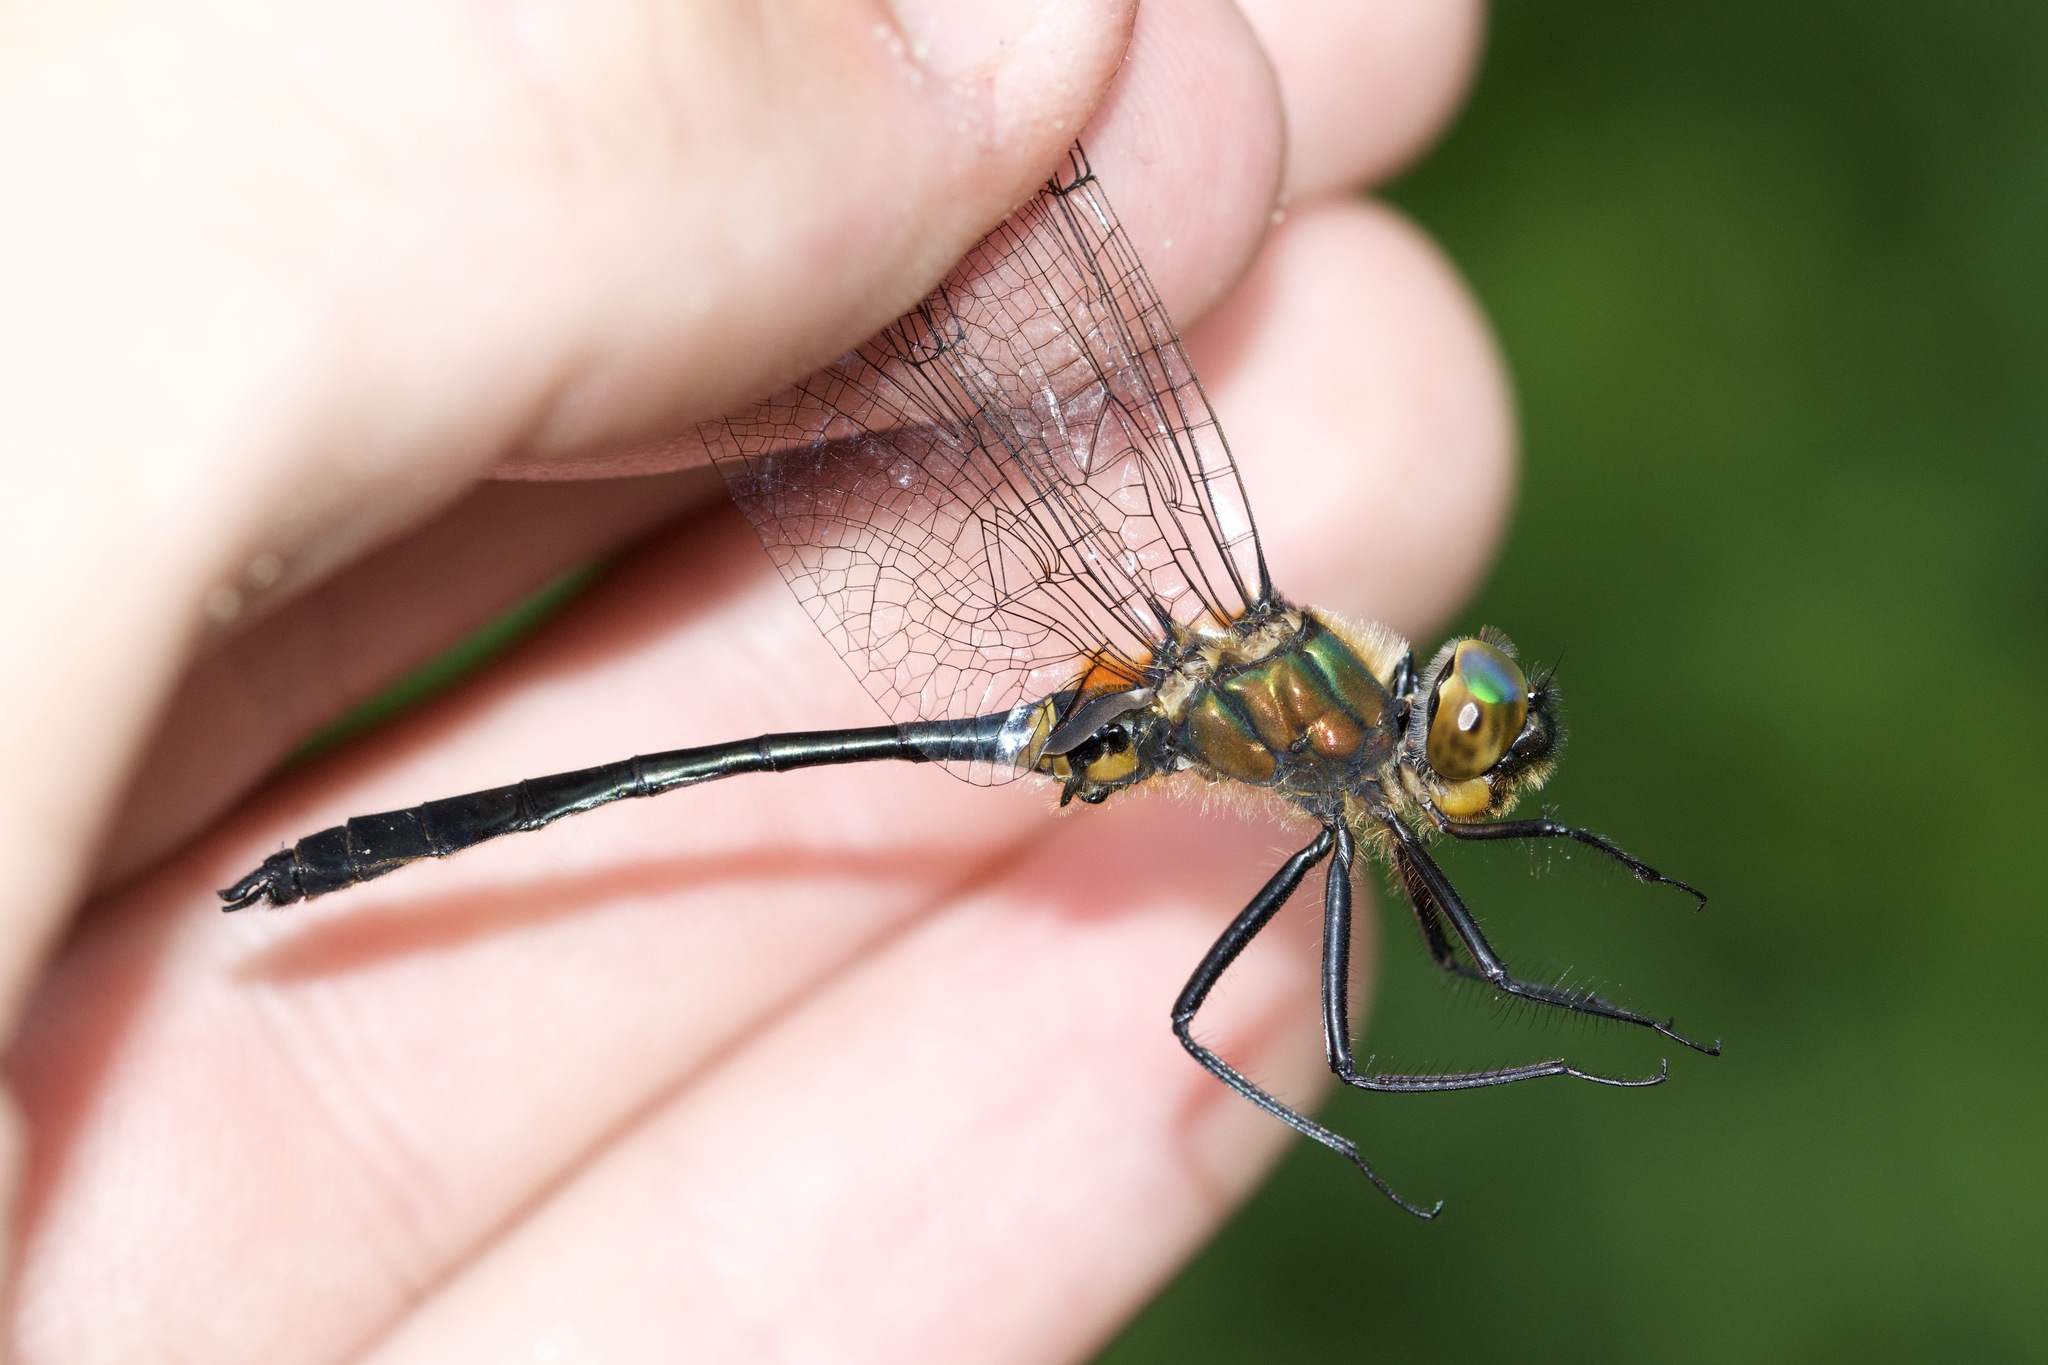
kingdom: Animalia
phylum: Arthropoda
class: Insecta
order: Odonata
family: Corduliidae
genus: Dorocordulia
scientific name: Dorocordulia libera
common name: Racket-tailed emerald
